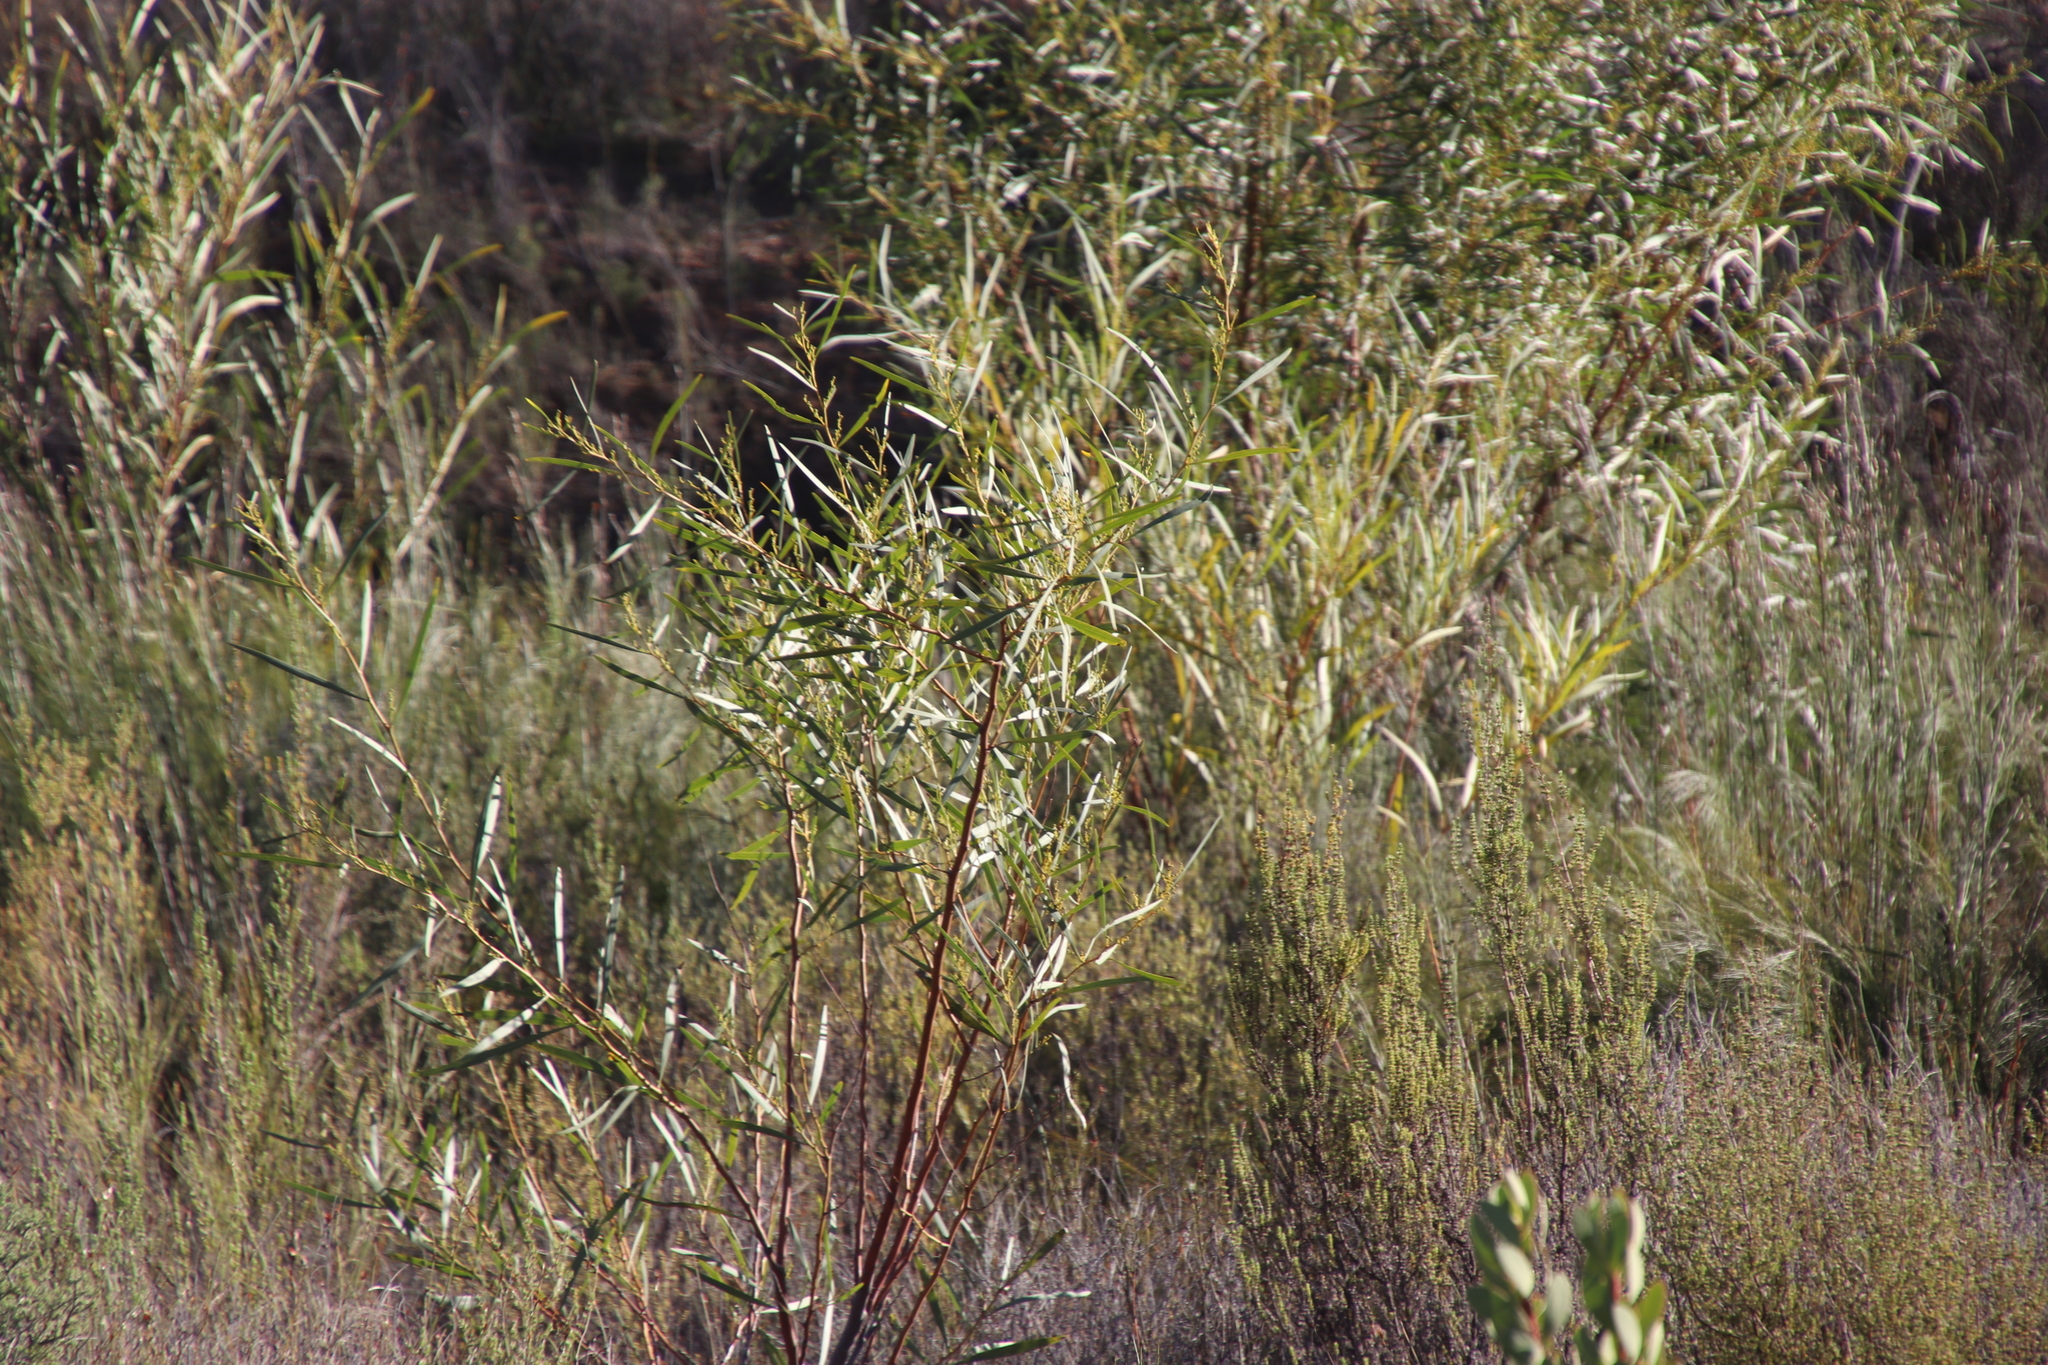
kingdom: Plantae
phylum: Tracheophyta
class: Magnoliopsida
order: Fabales
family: Fabaceae
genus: Acacia
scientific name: Acacia saligna
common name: Orange wattle
